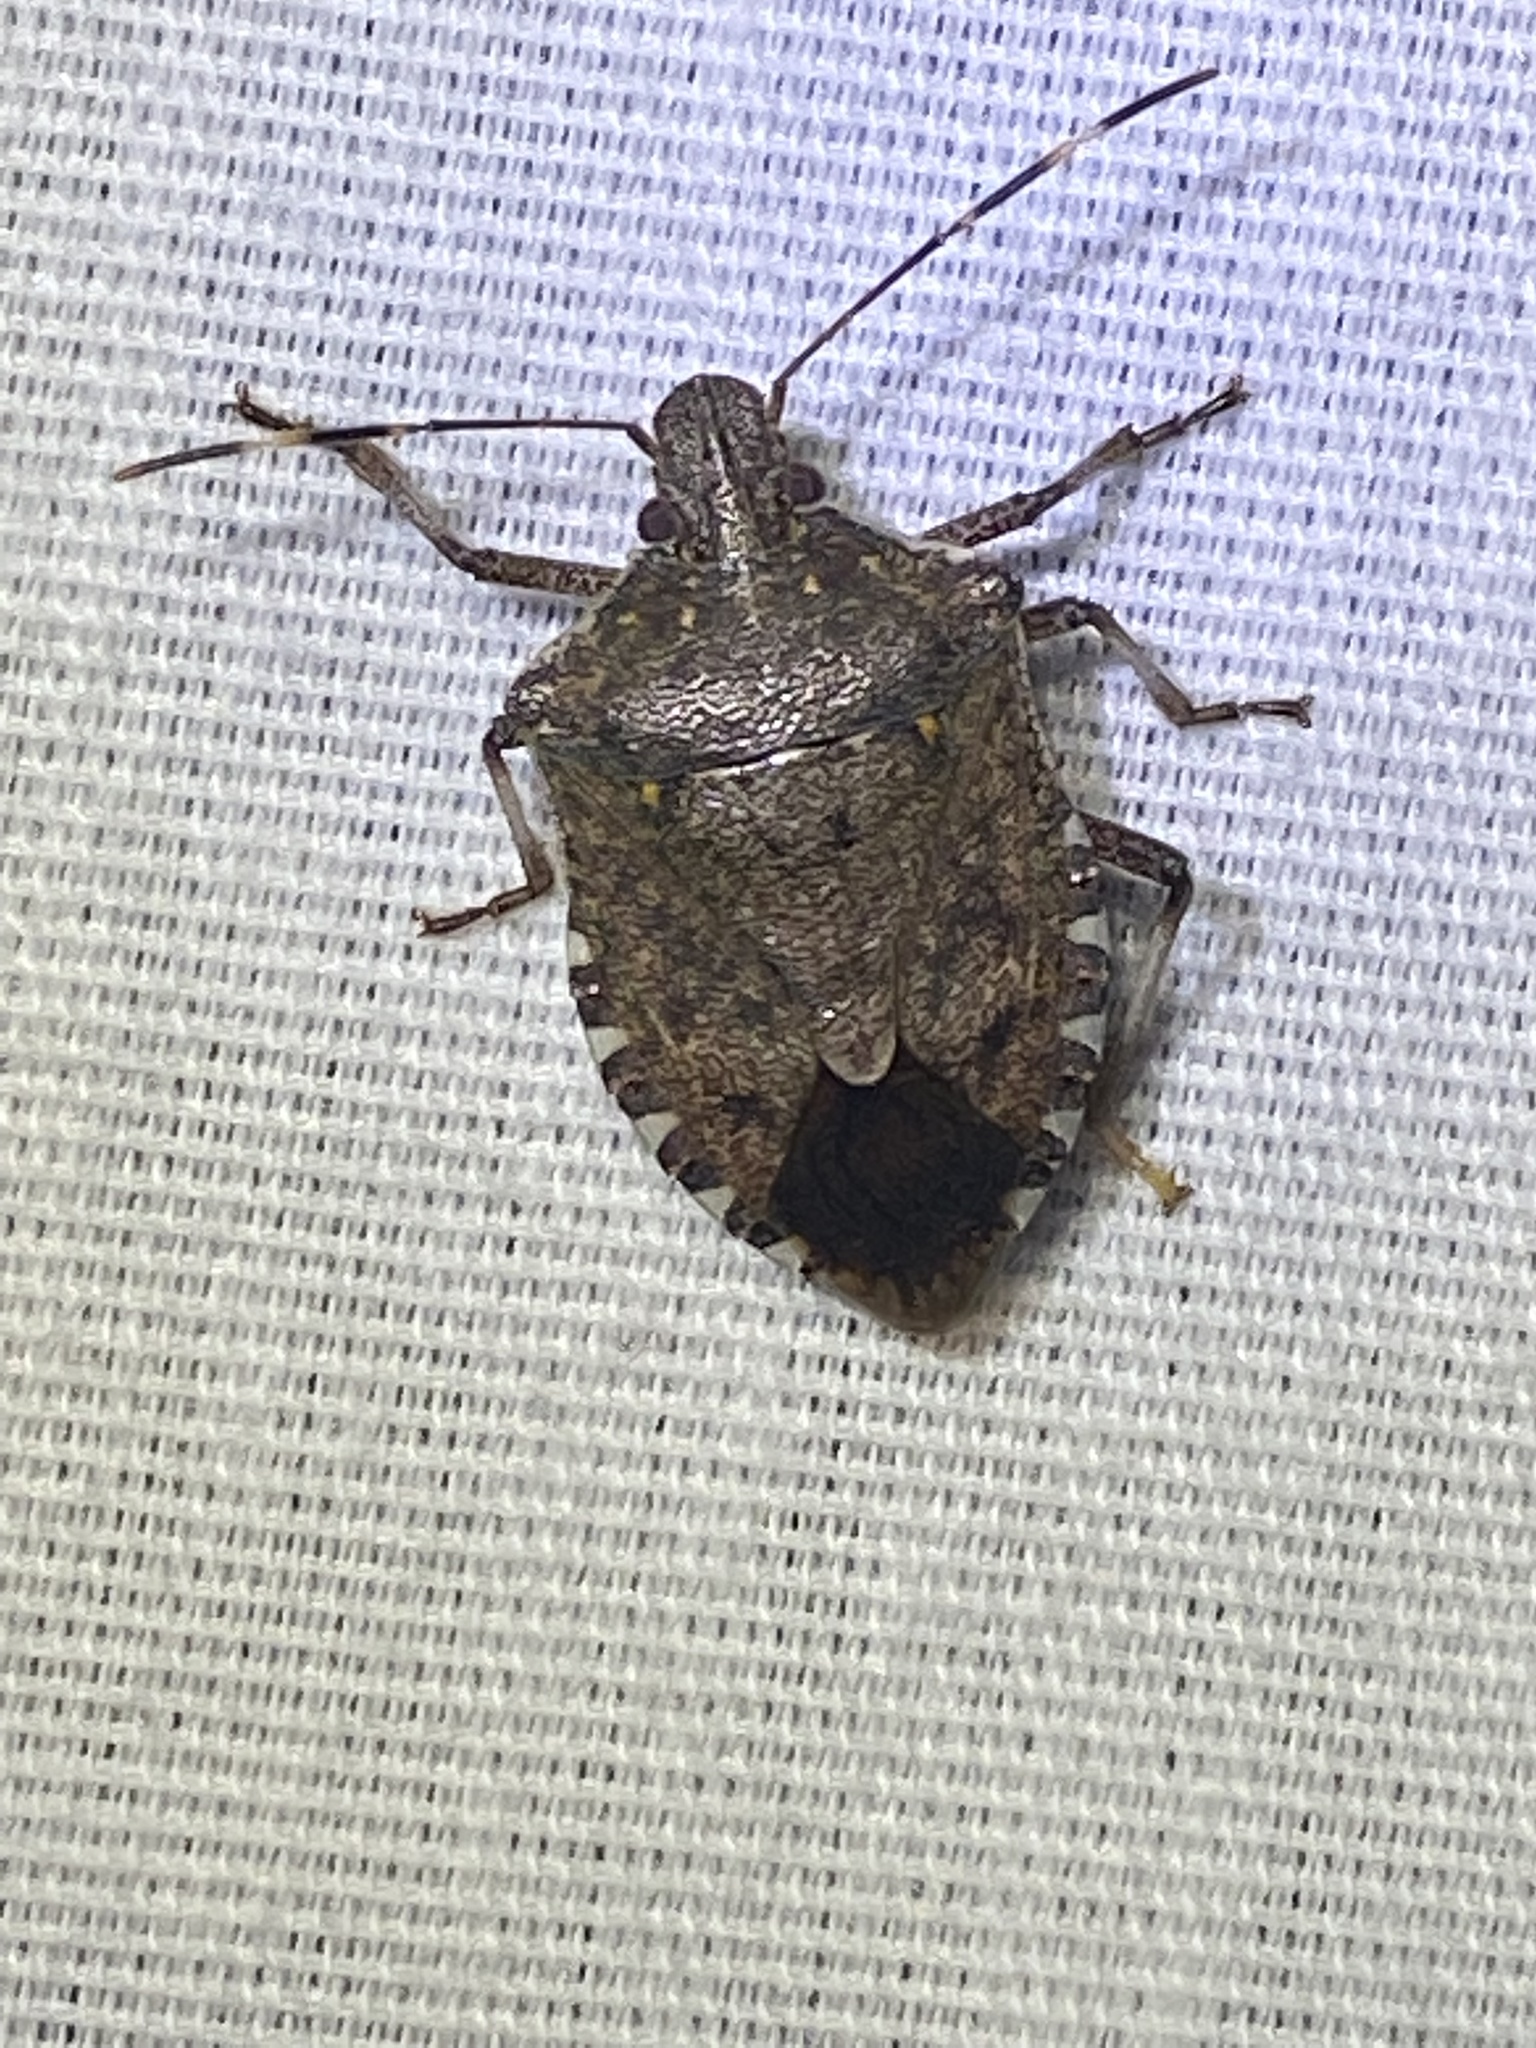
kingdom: Animalia
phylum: Arthropoda
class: Insecta
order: Hemiptera
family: Pentatomidae
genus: Halyomorpha
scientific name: Halyomorpha halys
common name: Brown marmorated stink bug
